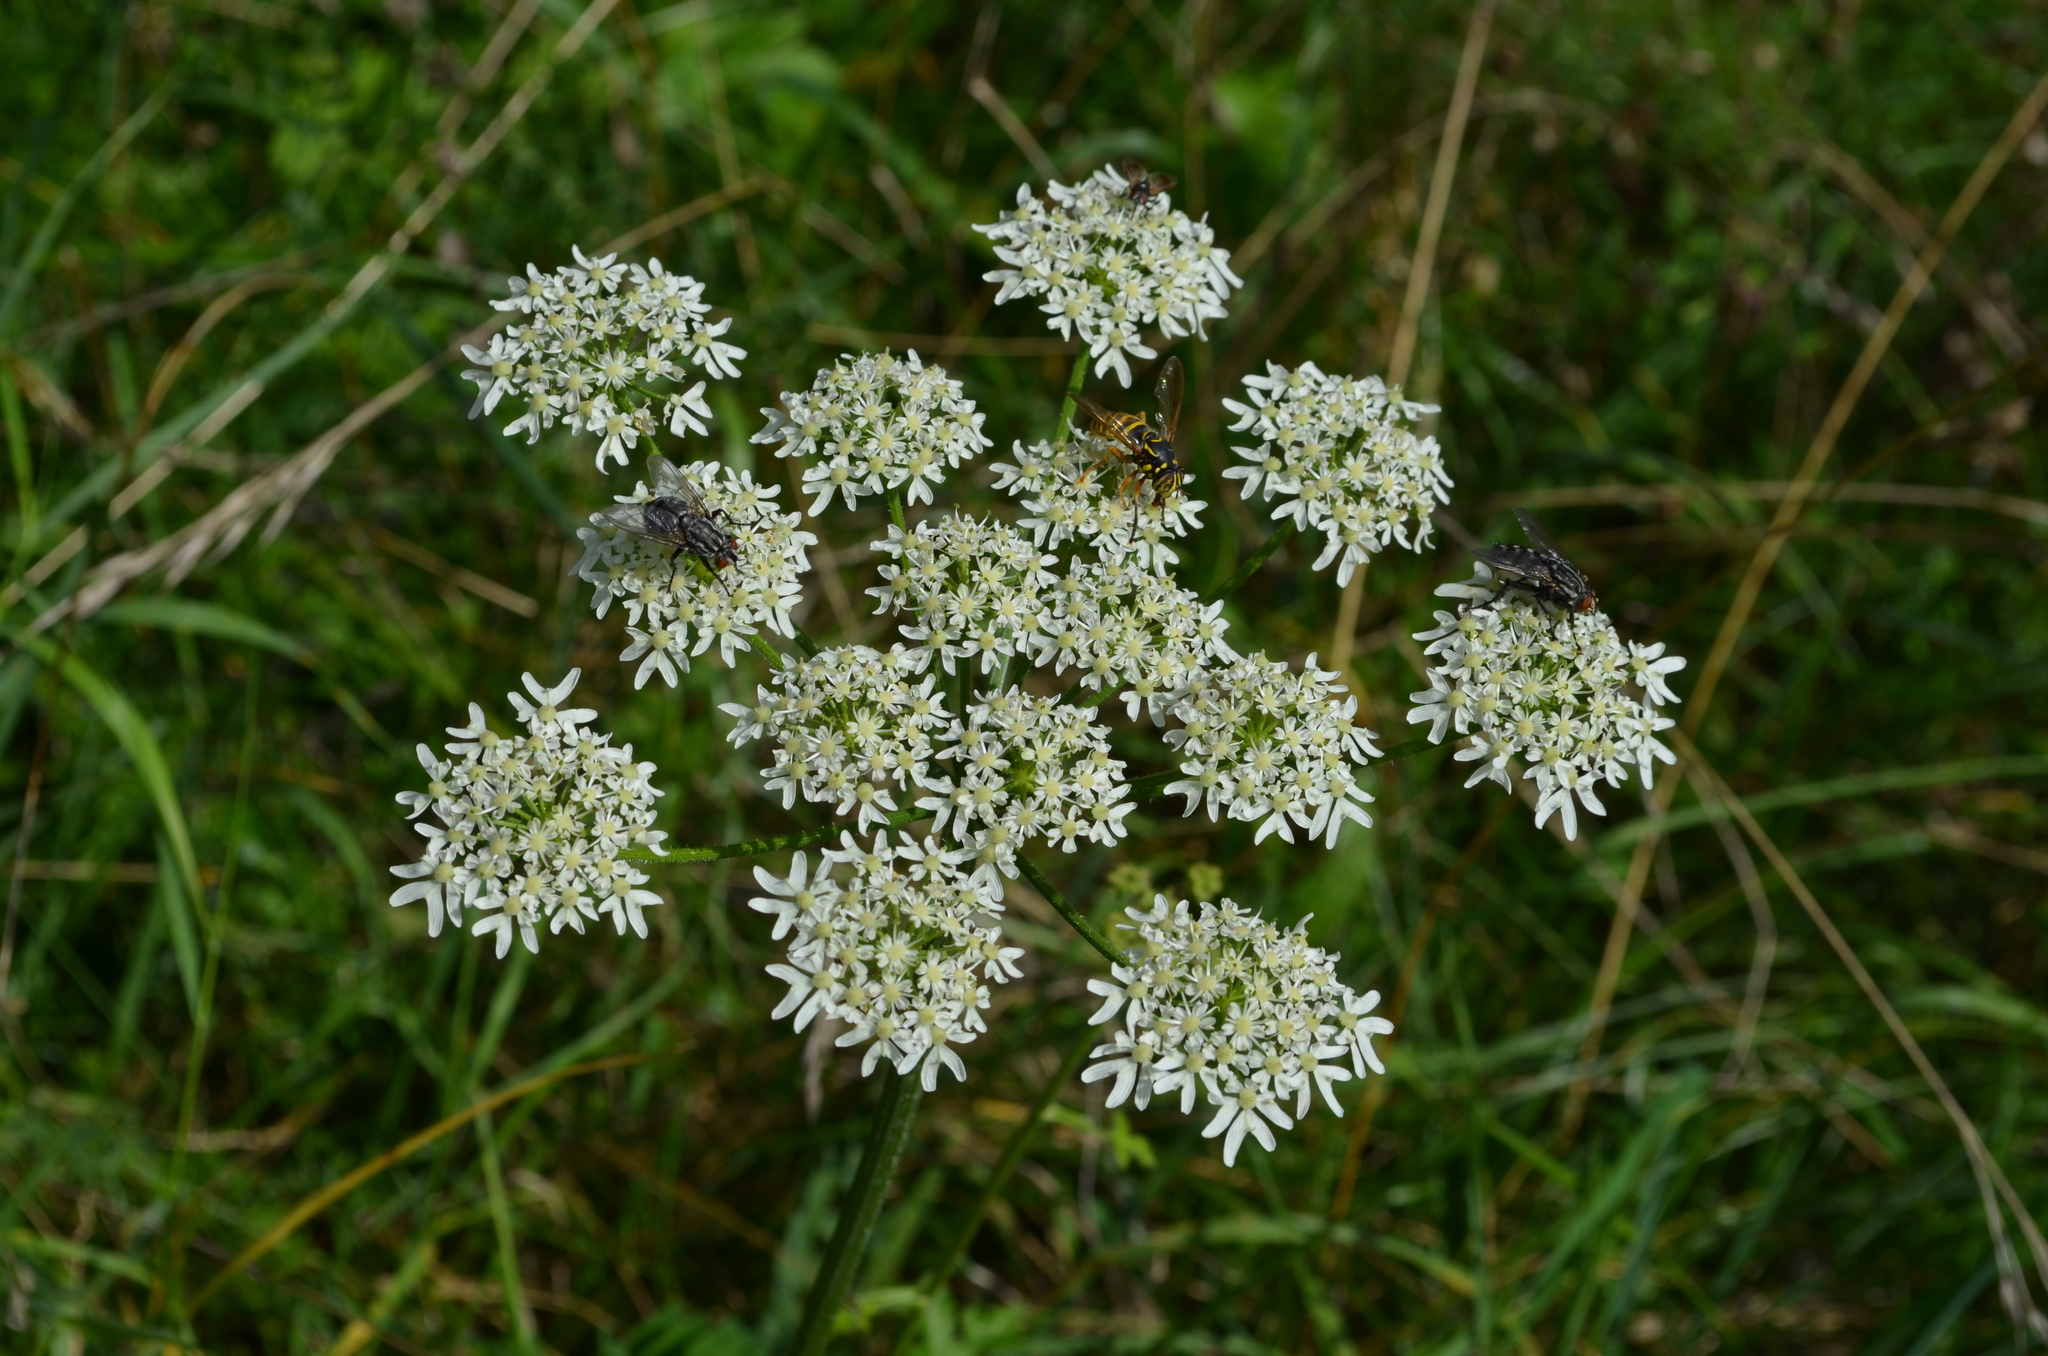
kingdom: Animalia
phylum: Arthropoda
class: Insecta
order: Diptera
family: Syrphidae
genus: Spilomyia
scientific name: Spilomyia manicata
